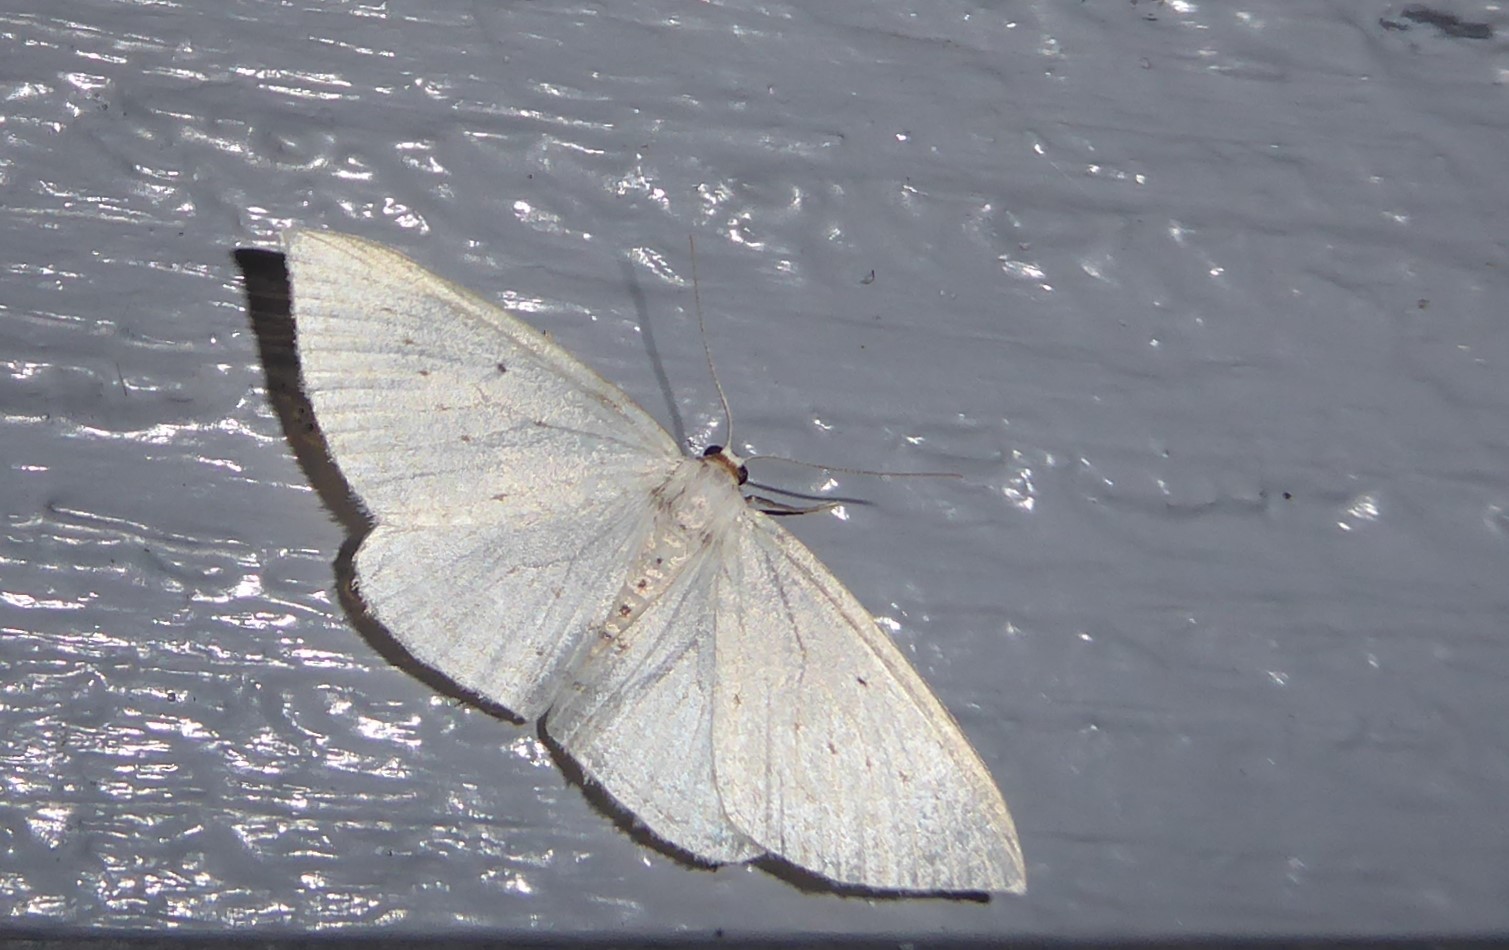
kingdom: Animalia
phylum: Arthropoda
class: Insecta
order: Lepidoptera
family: Geometridae
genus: Orthoclydon
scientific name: Orthoclydon praefectata
